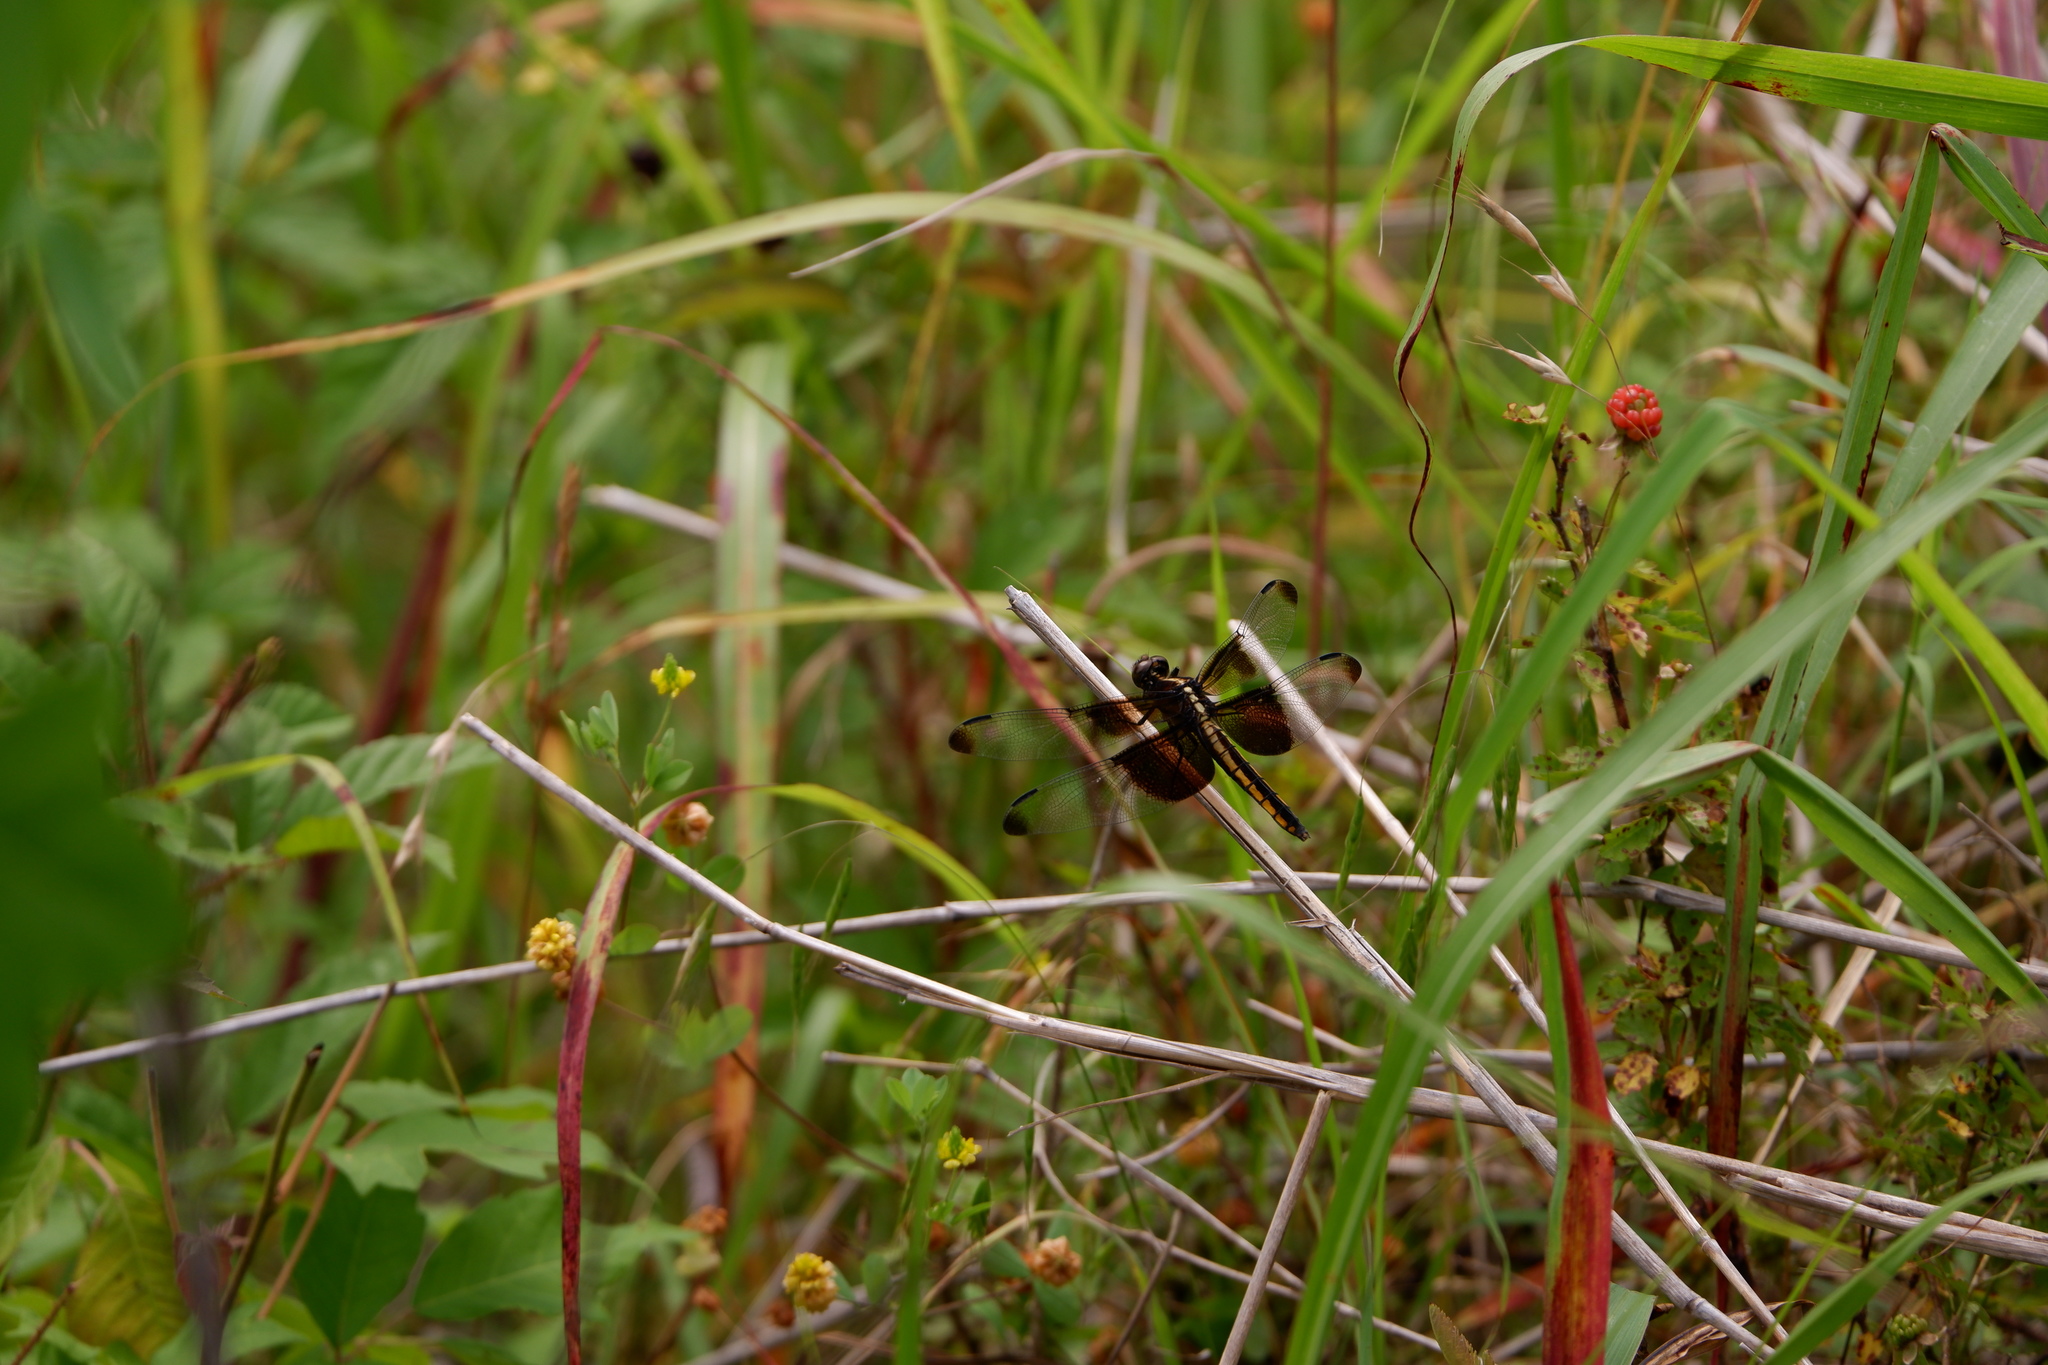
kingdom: Animalia
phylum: Arthropoda
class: Insecta
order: Odonata
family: Libellulidae
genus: Libellula
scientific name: Libellula luctuosa
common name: Widow skimmer
